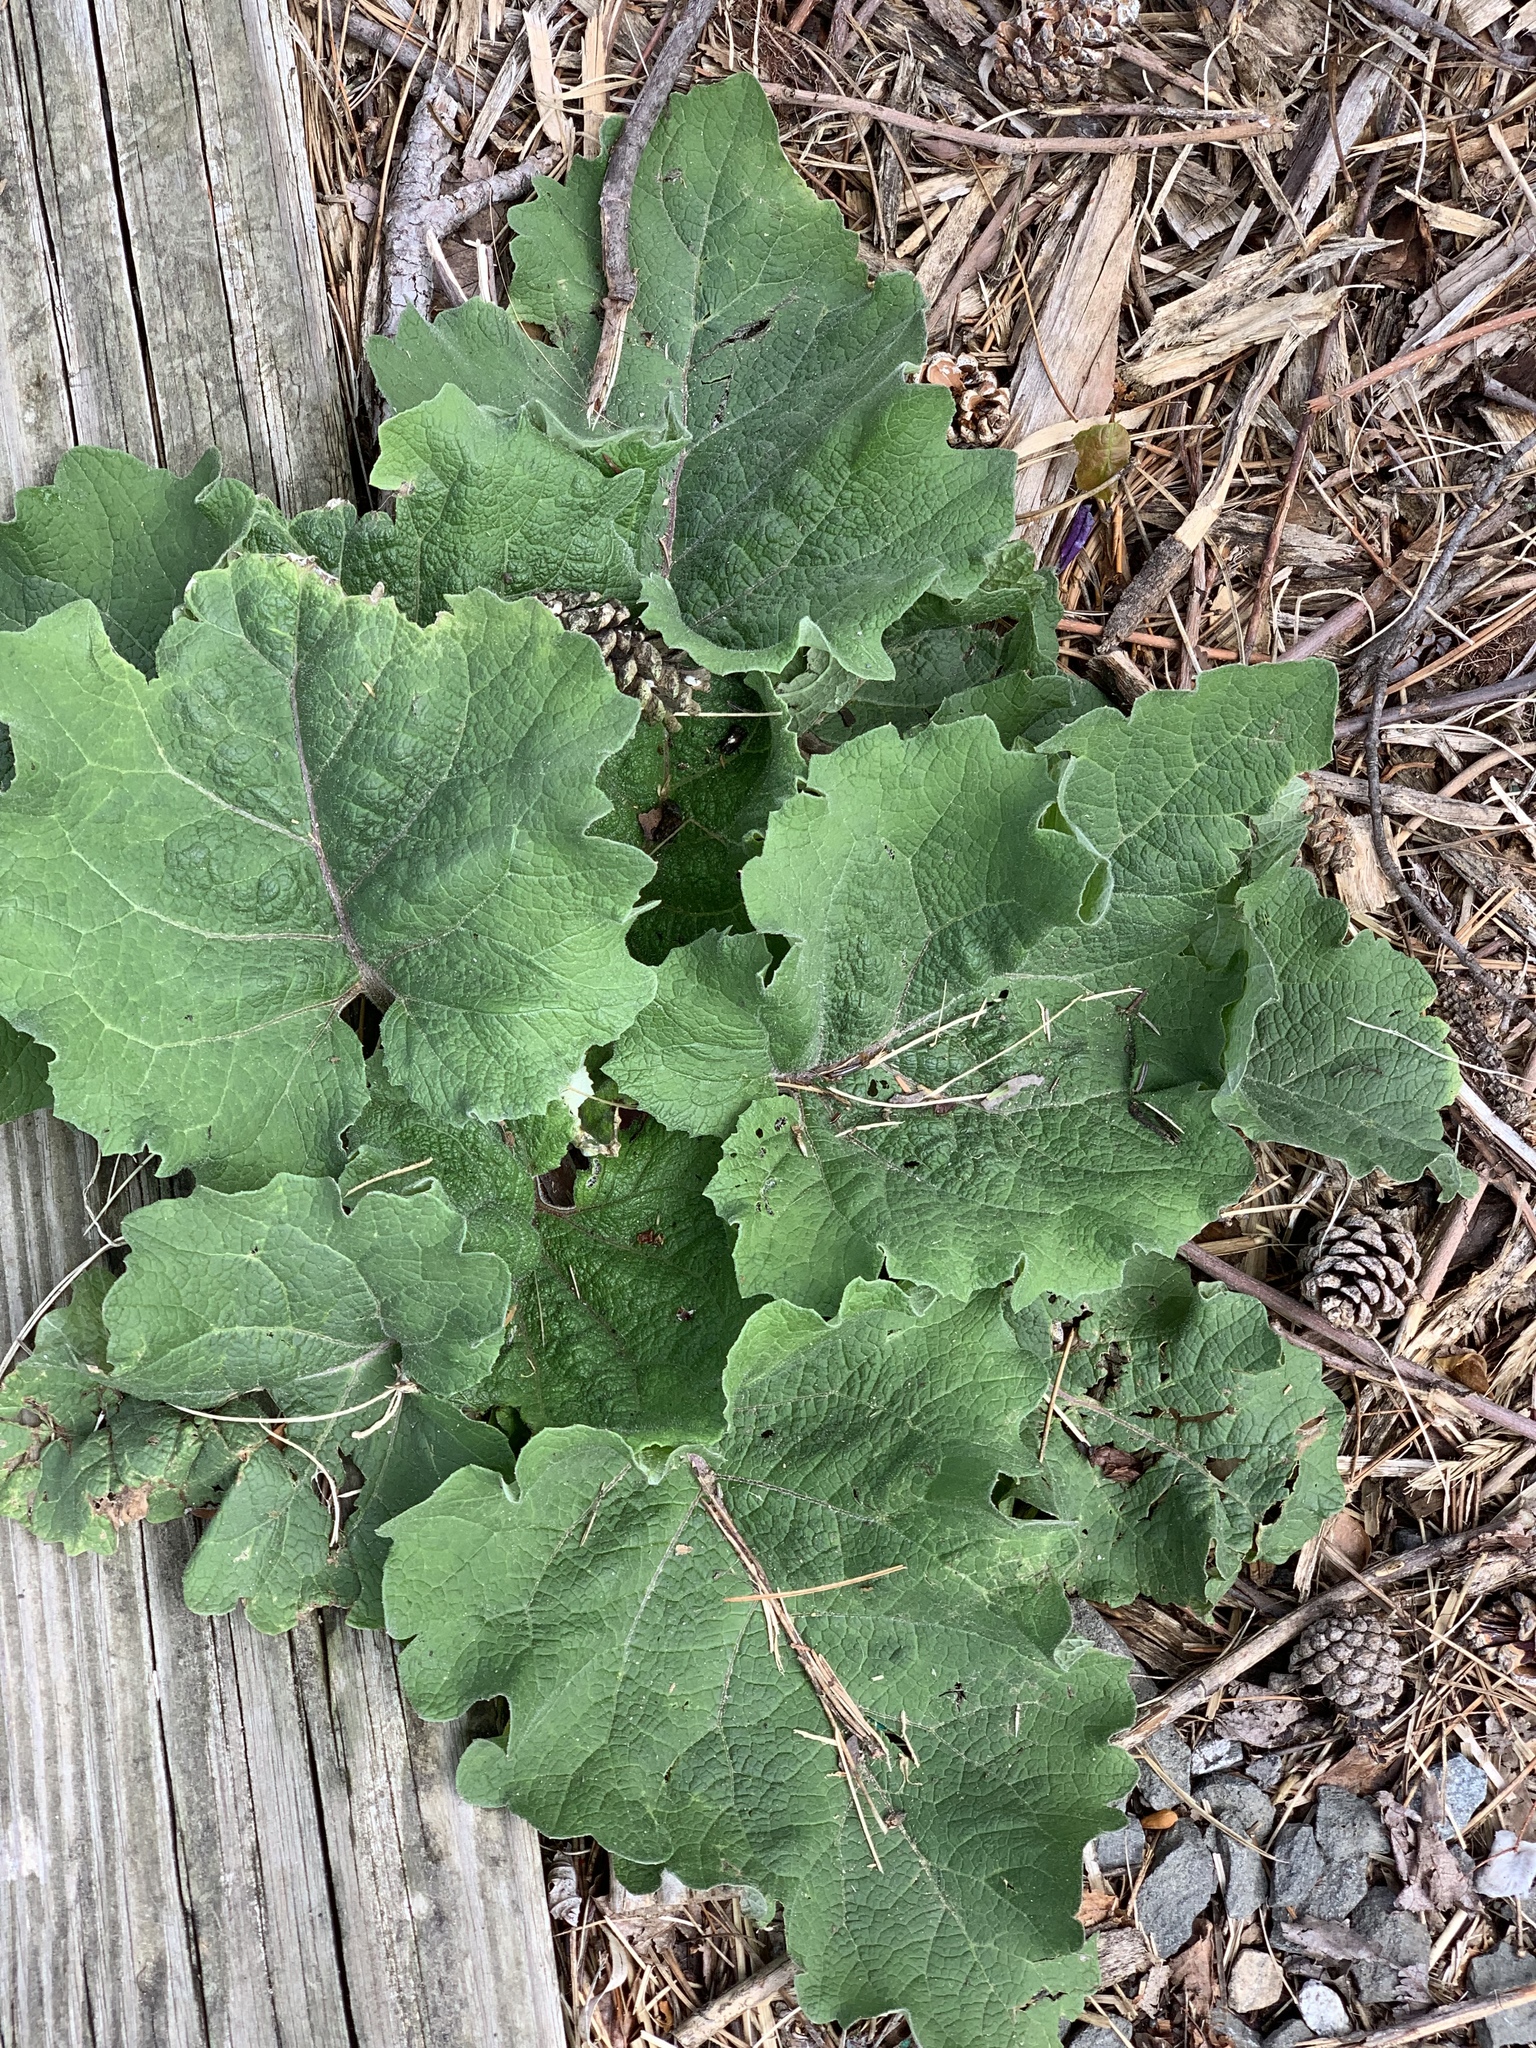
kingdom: Plantae
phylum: Tracheophyta
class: Magnoliopsida
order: Asterales
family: Asteraceae
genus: Arctium
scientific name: Arctium
